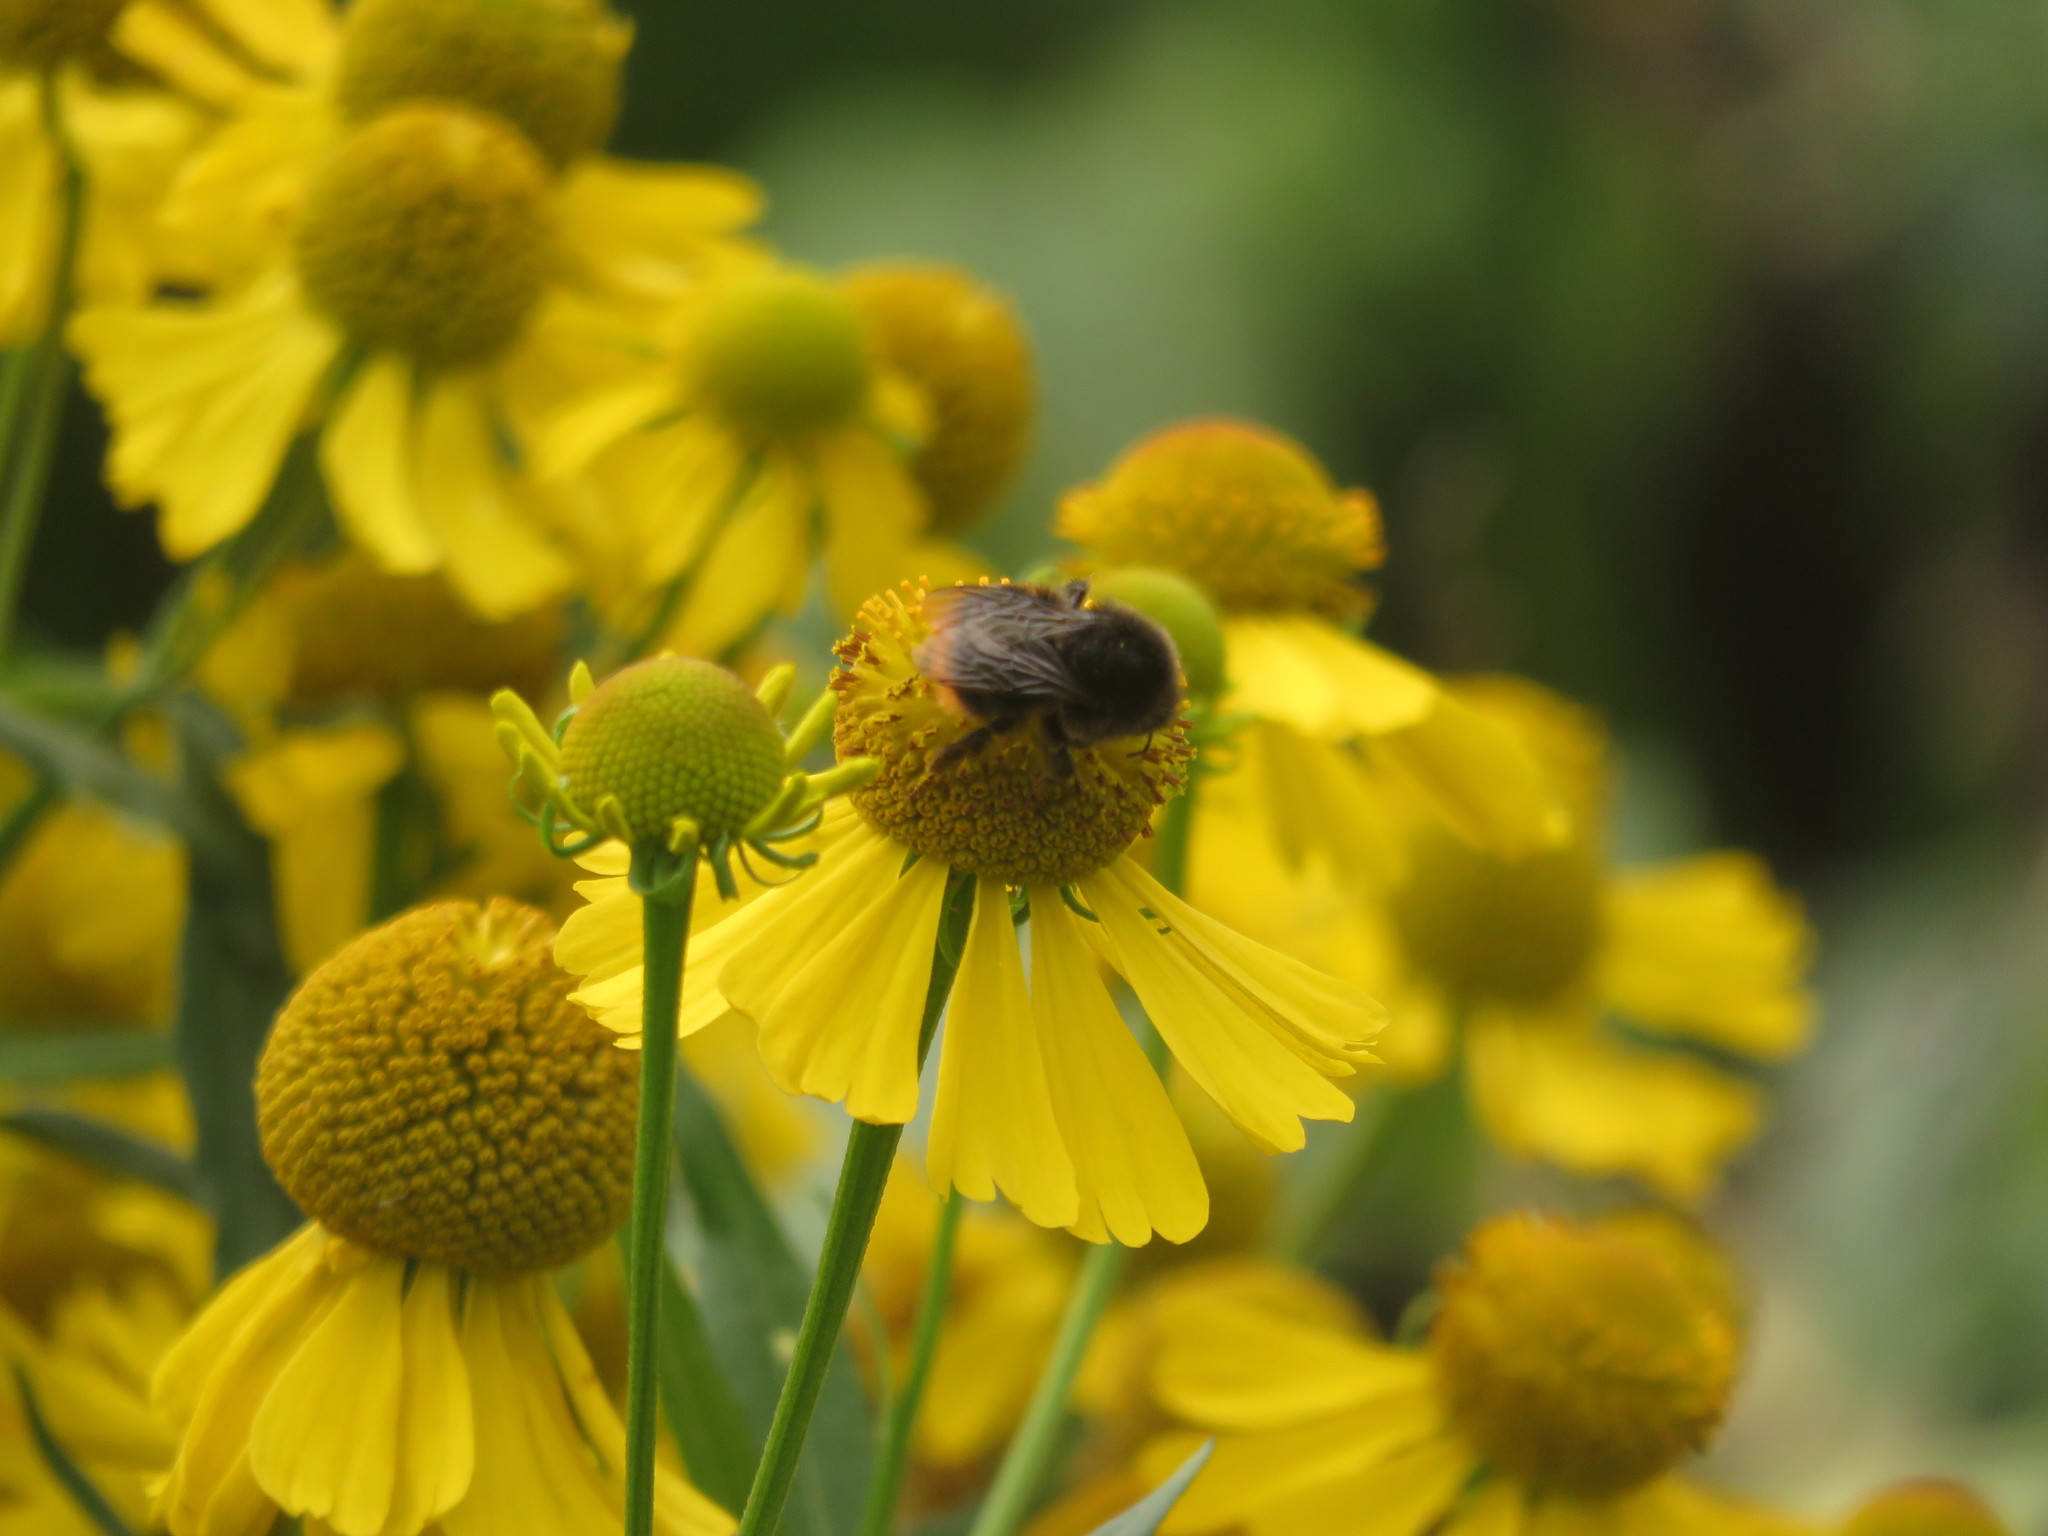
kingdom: Animalia
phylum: Arthropoda
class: Insecta
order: Hymenoptera
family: Apidae
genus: Bombus
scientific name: Bombus lapidarius
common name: Large red-tailed humble-bee
